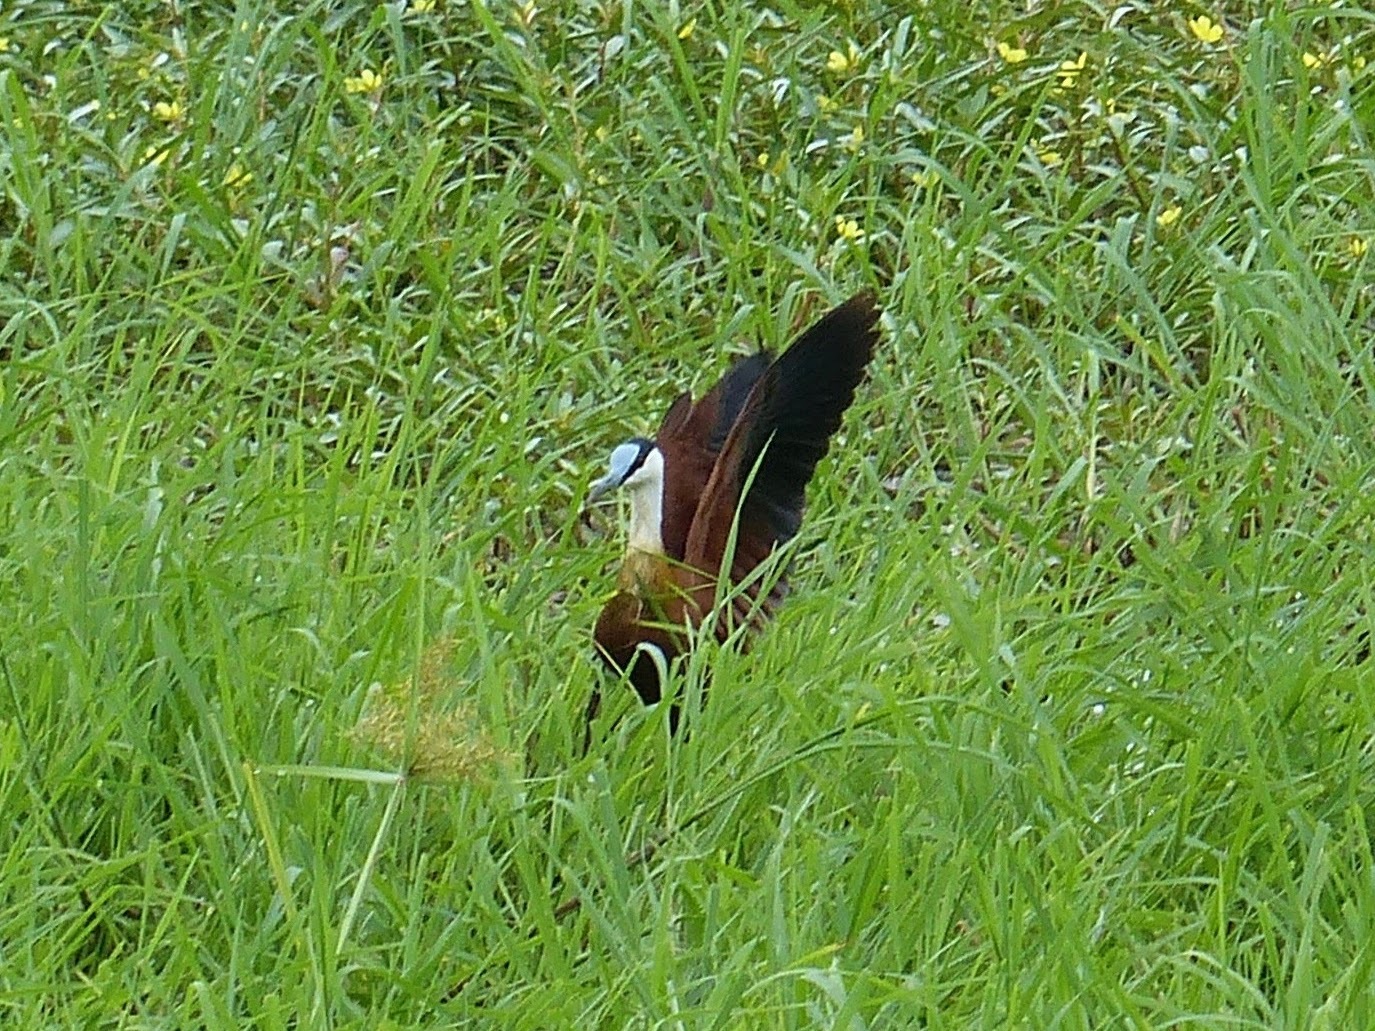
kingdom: Animalia
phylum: Chordata
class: Aves
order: Charadriiformes
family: Jacanidae
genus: Actophilornis
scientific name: Actophilornis africanus
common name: African jacana
